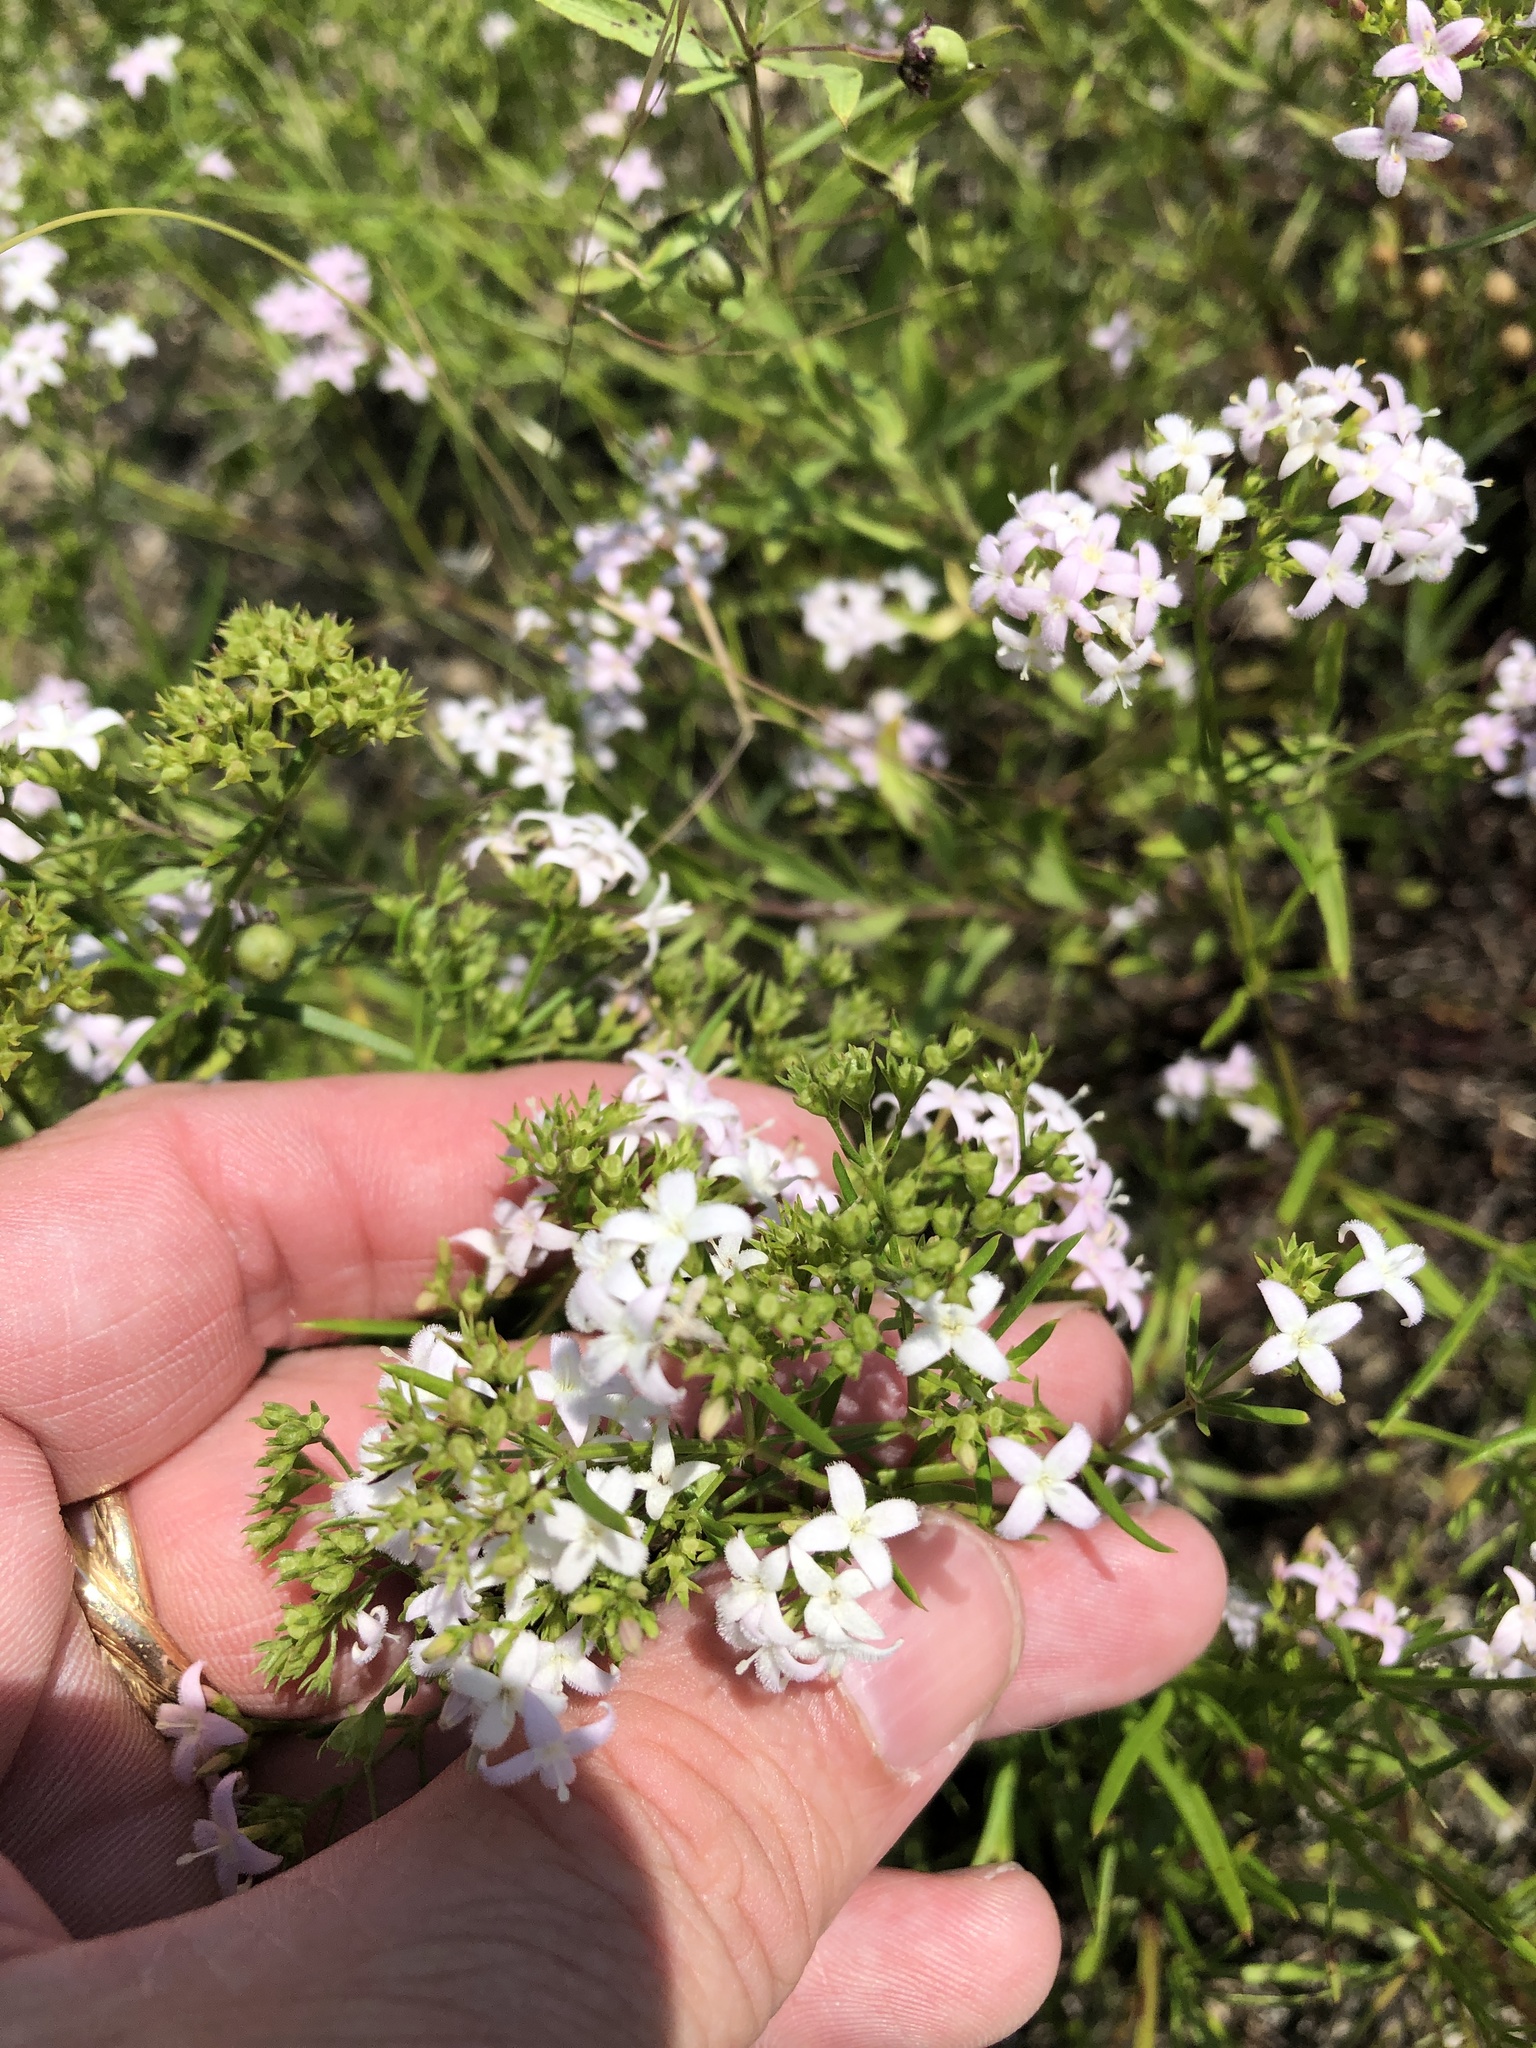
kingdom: Plantae
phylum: Tracheophyta
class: Magnoliopsida
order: Gentianales
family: Rubiaceae
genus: Stenaria
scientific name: Stenaria nigricans
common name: Diamondflowers
